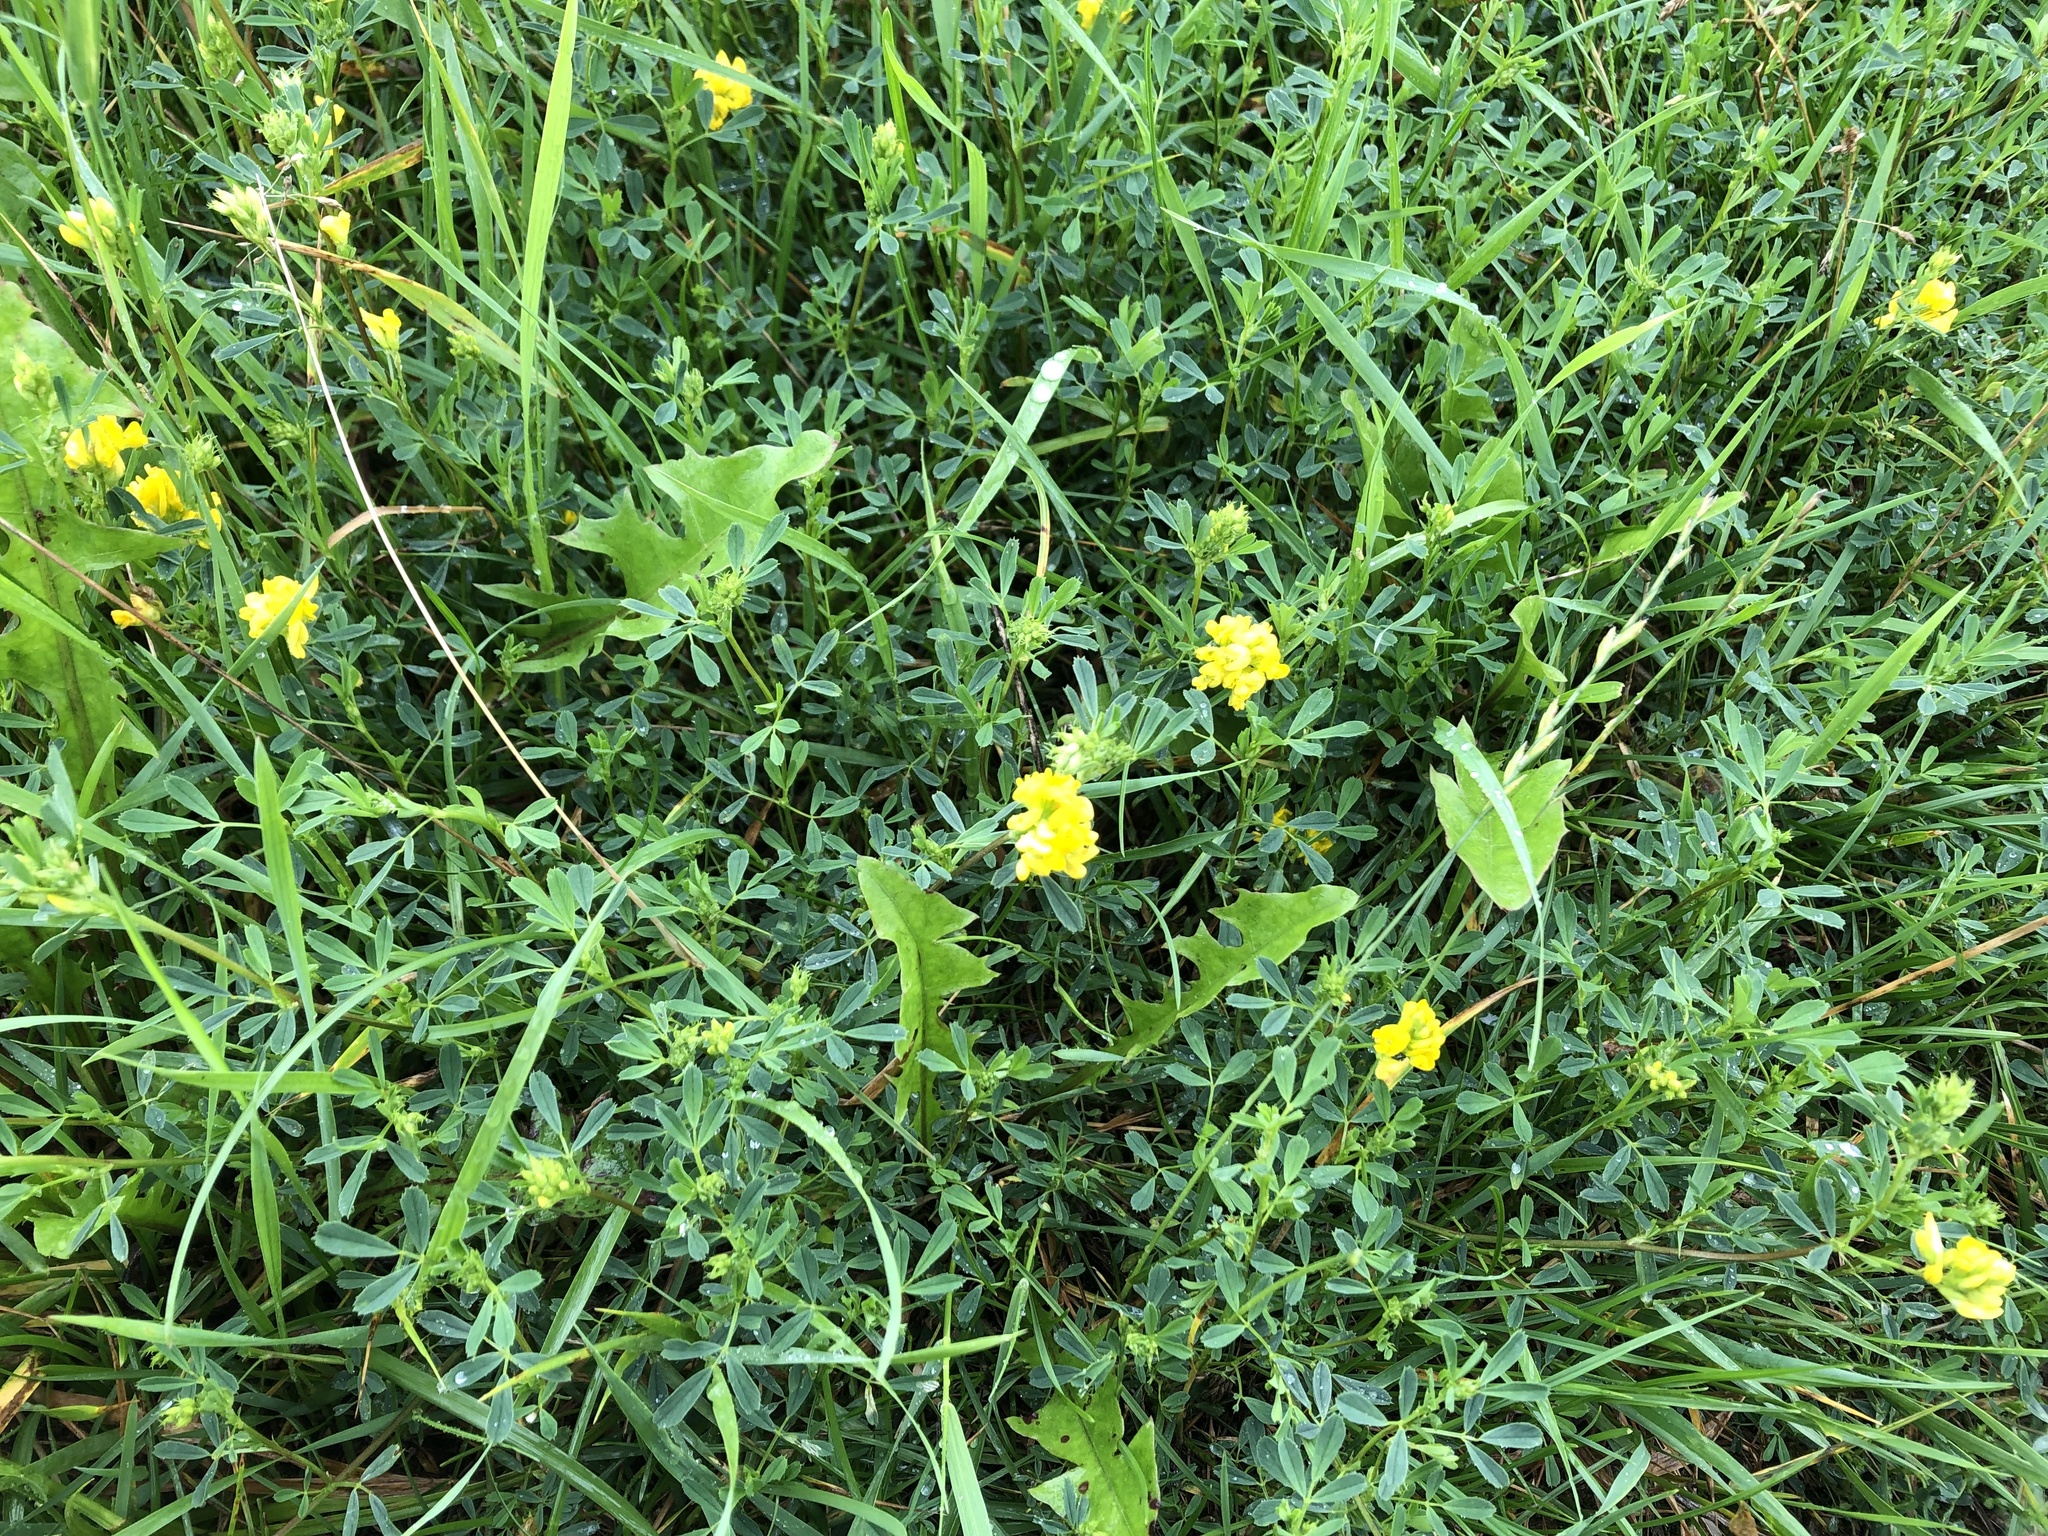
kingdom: Plantae
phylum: Tracheophyta
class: Magnoliopsida
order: Fabales
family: Fabaceae
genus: Medicago
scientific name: Medicago falcata
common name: Sickle medick
